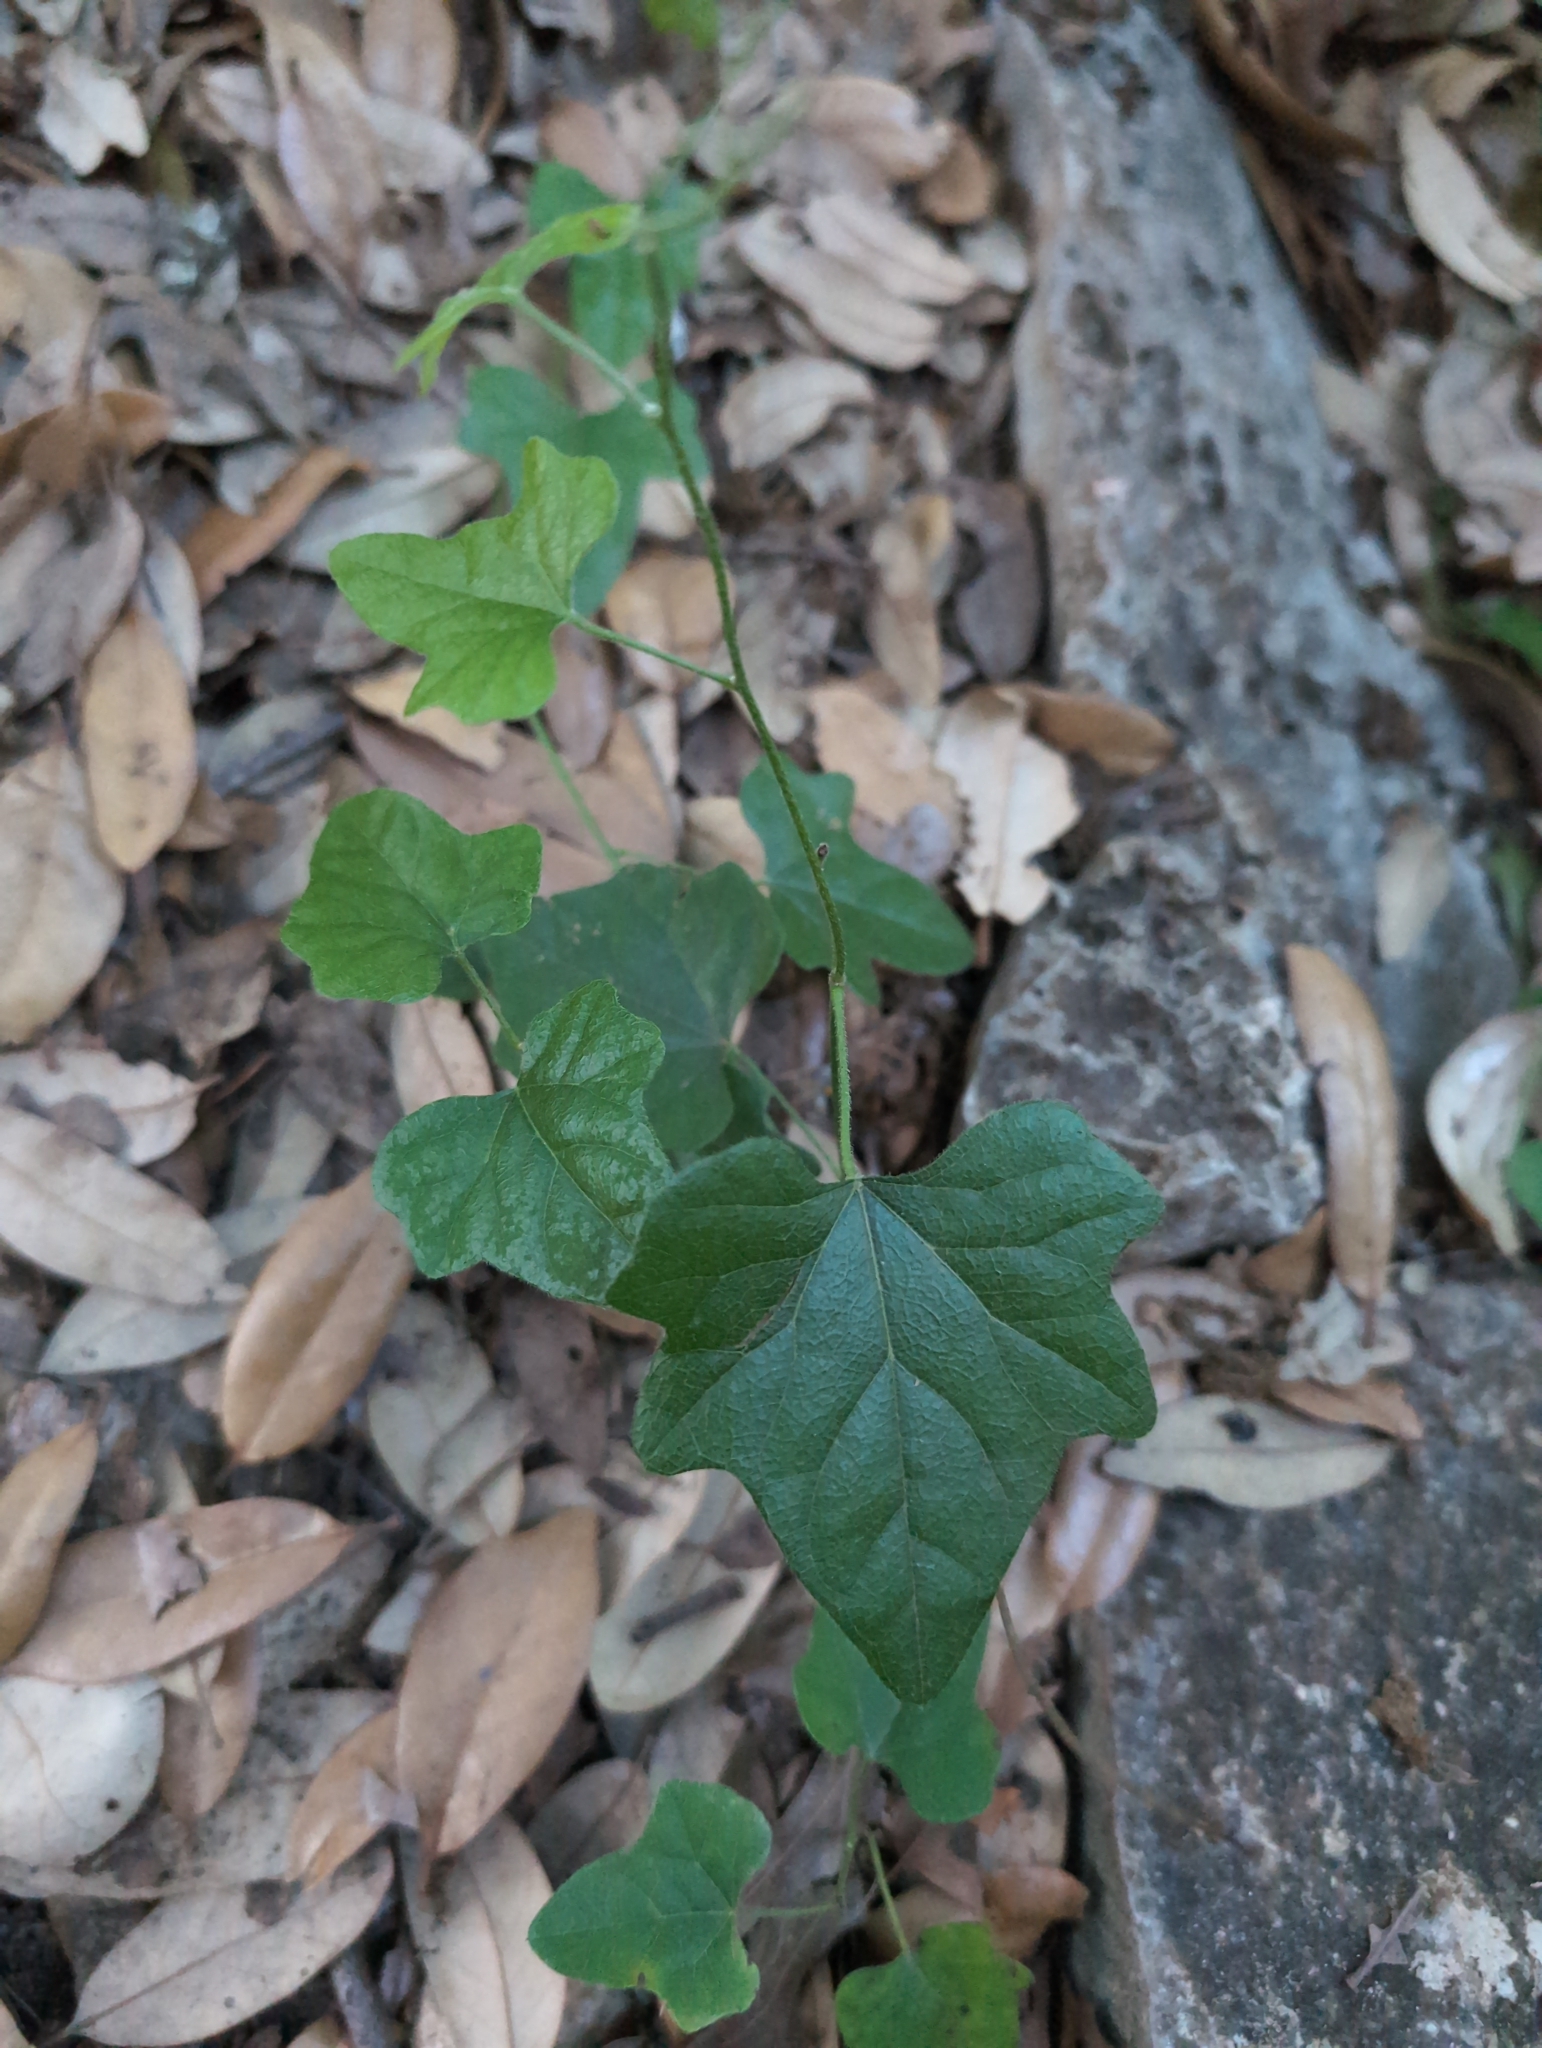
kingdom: Plantae
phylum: Tracheophyta
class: Magnoliopsida
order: Ranunculales
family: Menispermaceae
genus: Cocculus
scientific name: Cocculus carolinus
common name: Carolina moonseed
